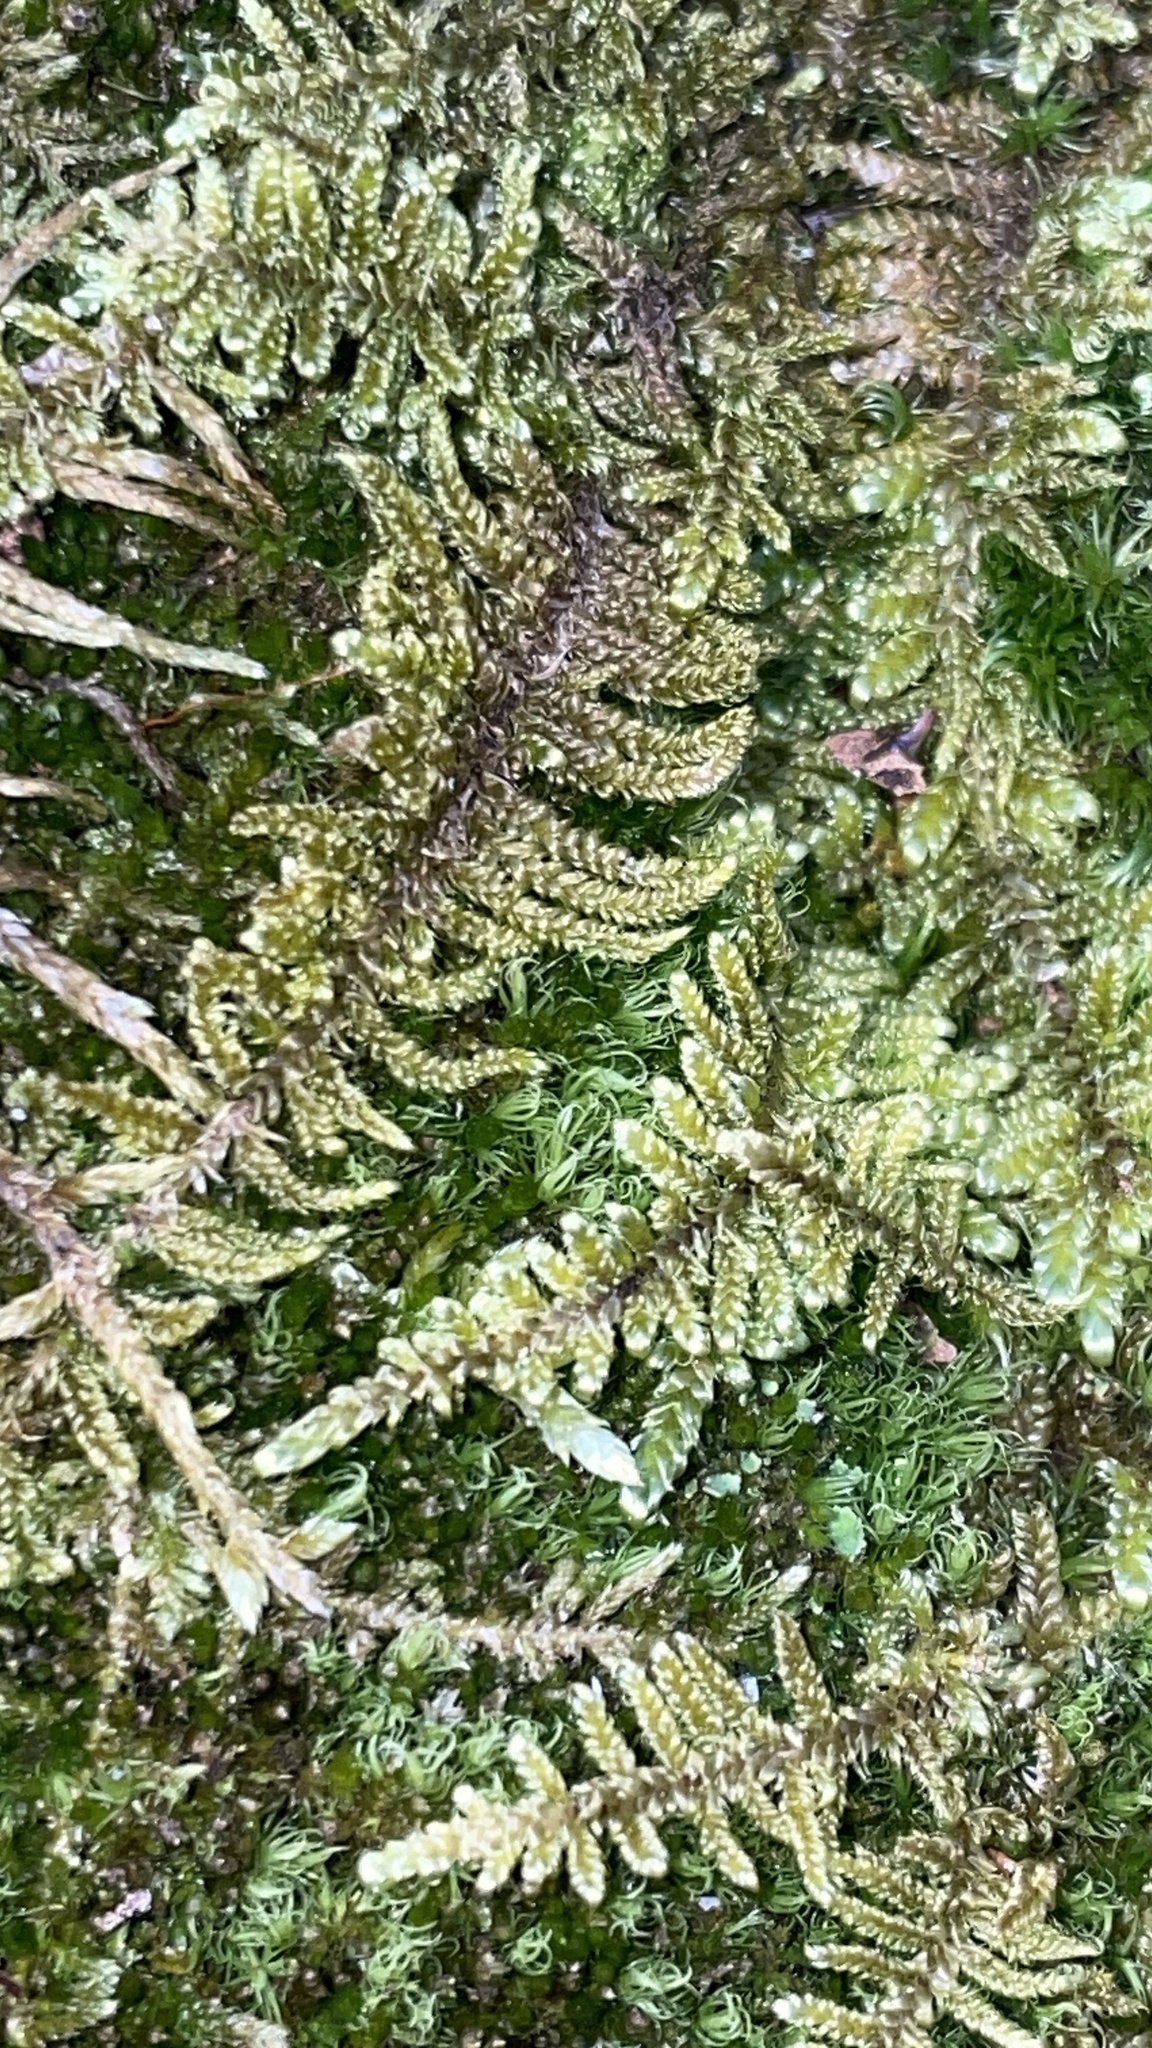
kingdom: Plantae
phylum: Bryophyta
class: Bryopsida
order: Hypnales
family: Callicladiaceae
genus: Callicladium
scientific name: Callicladium imponens
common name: Brocade moss
